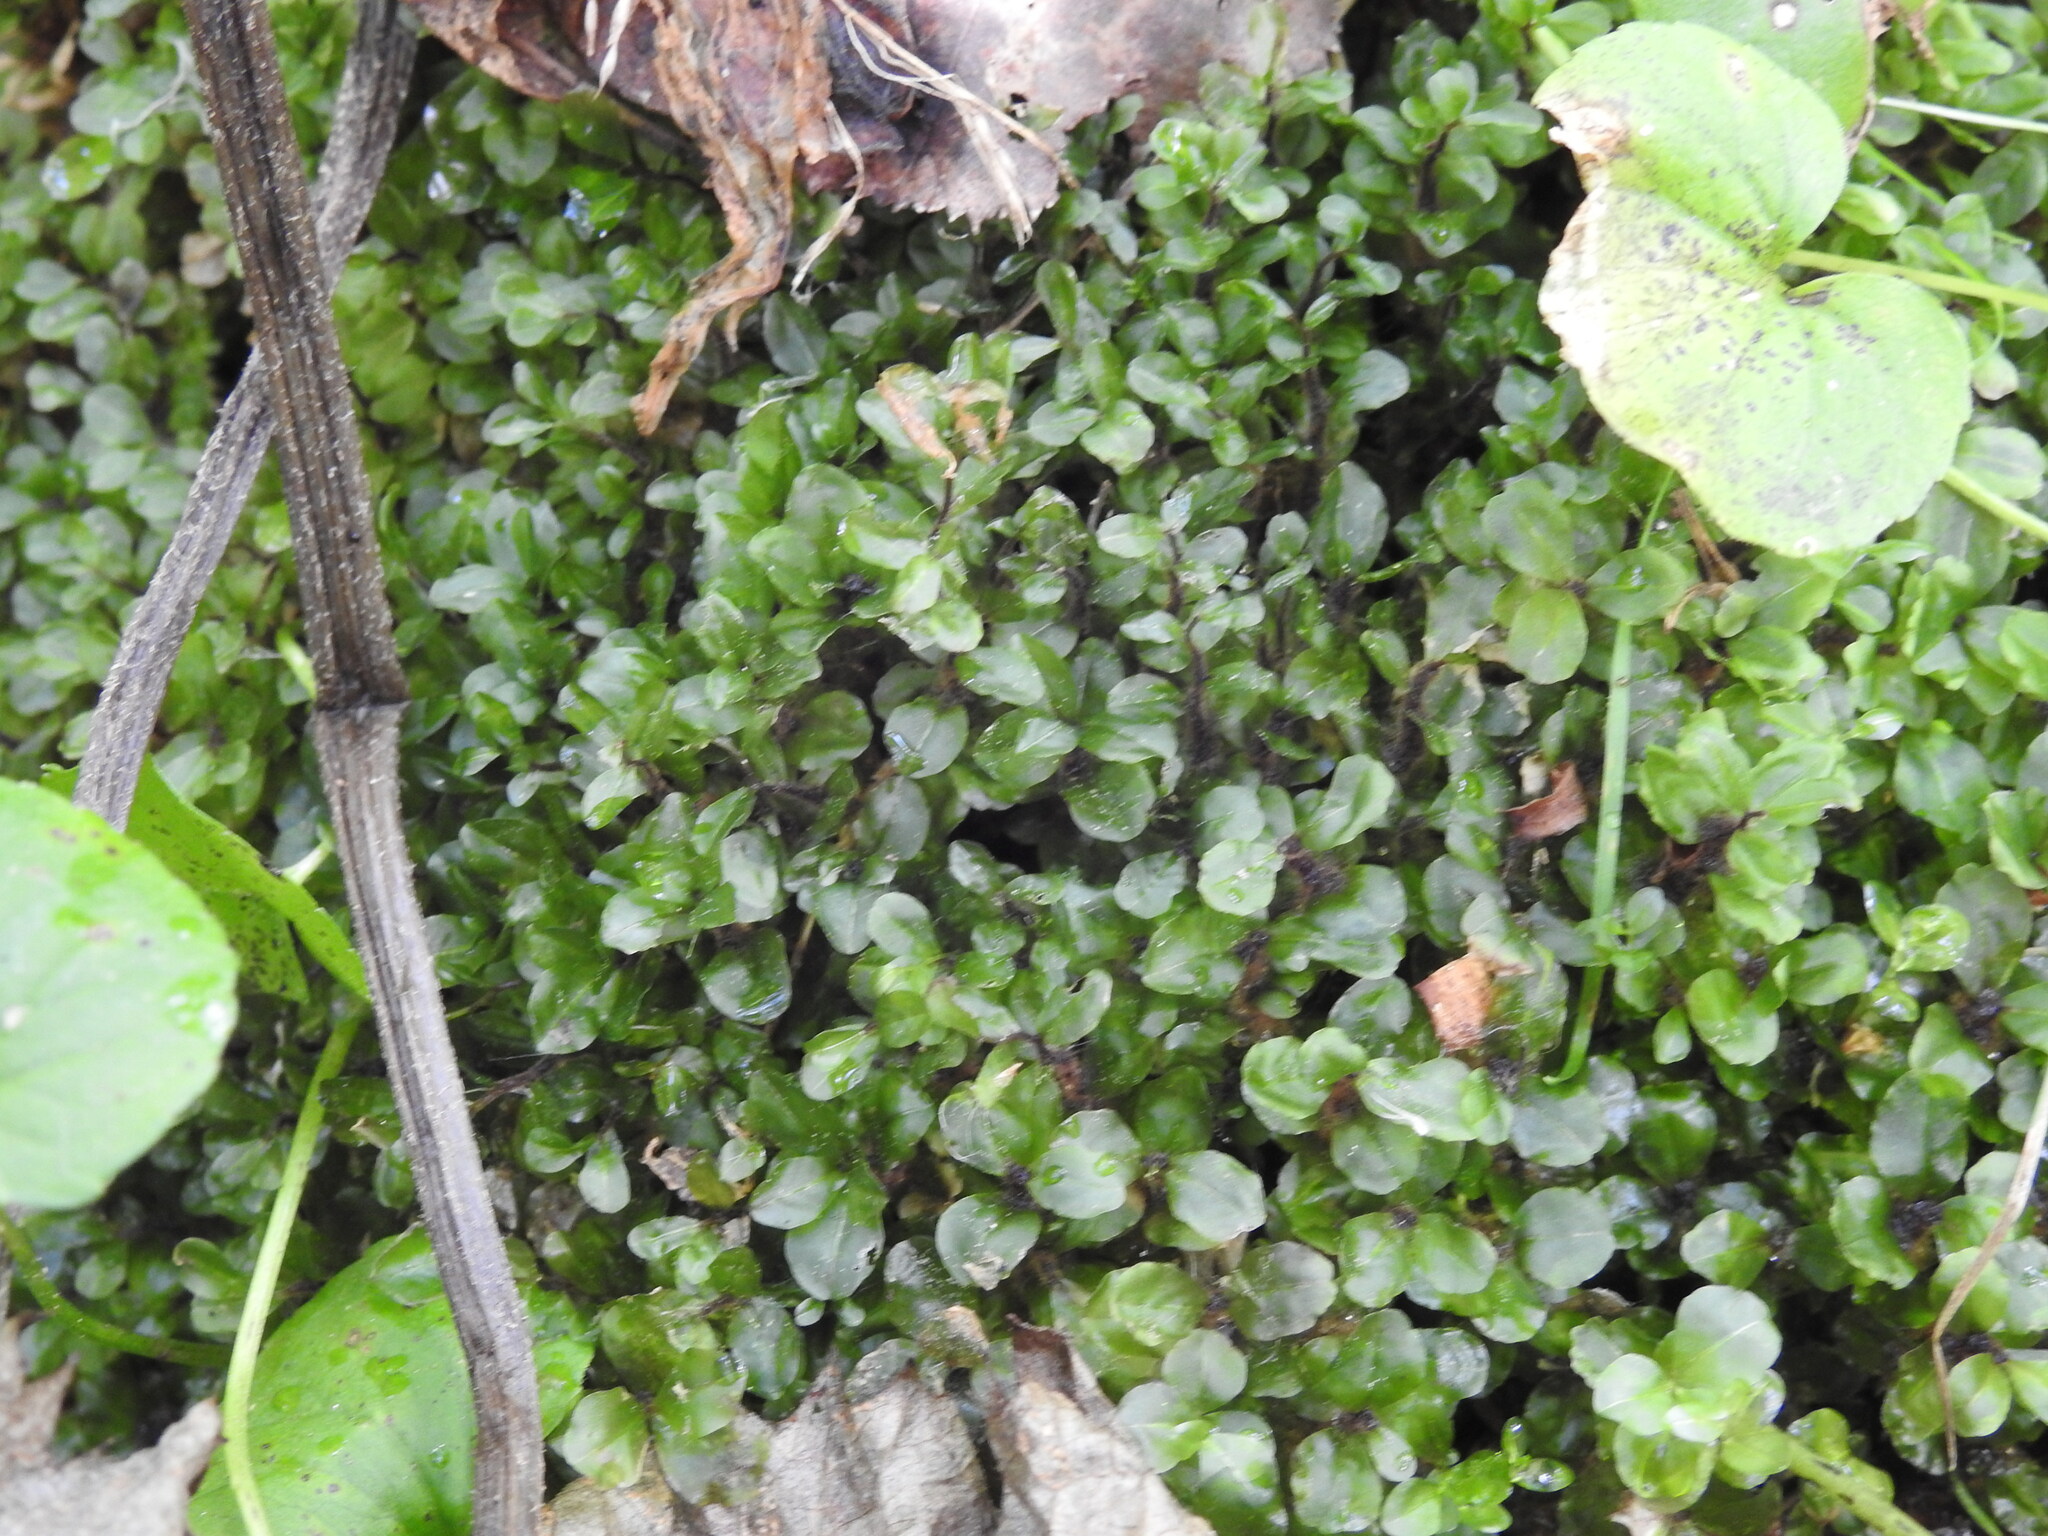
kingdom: Plantae
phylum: Bryophyta
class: Bryopsida
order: Bryales
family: Mniaceae
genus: Rhizomnium
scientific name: Rhizomnium punctatum
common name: Dotted leafy moss
